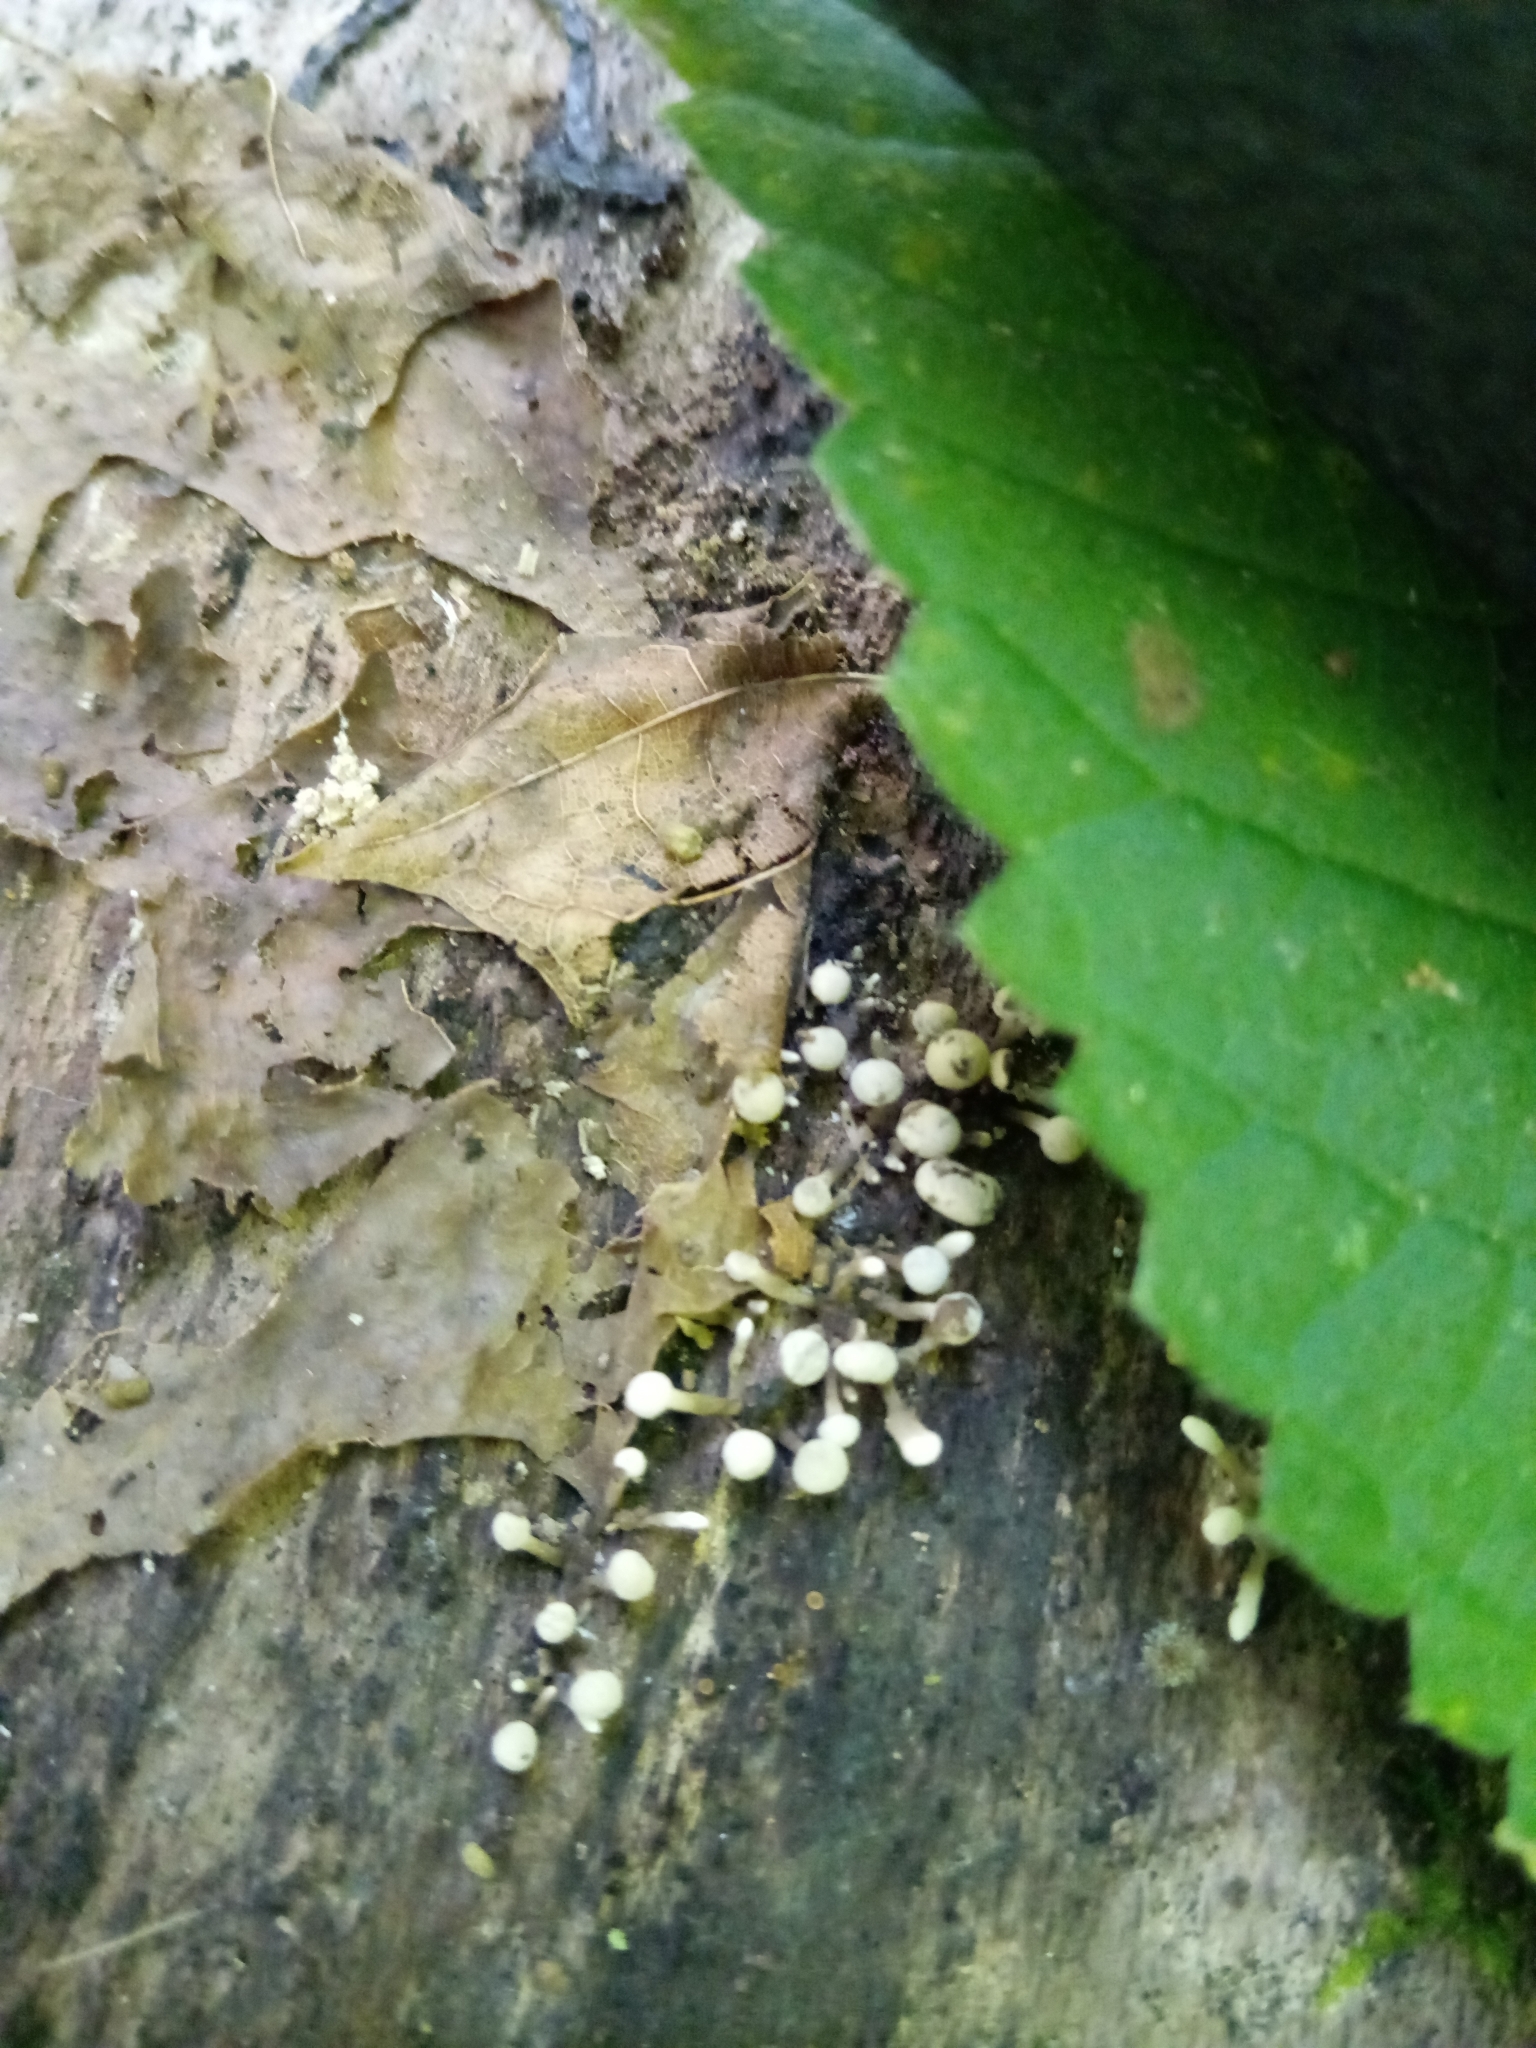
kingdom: Fungi
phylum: Basidiomycota
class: Atractiellomycetes
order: Atractiellales
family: Phleogenaceae
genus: Phleogena
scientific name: Phleogena faginea
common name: Fenugreek stalkball
